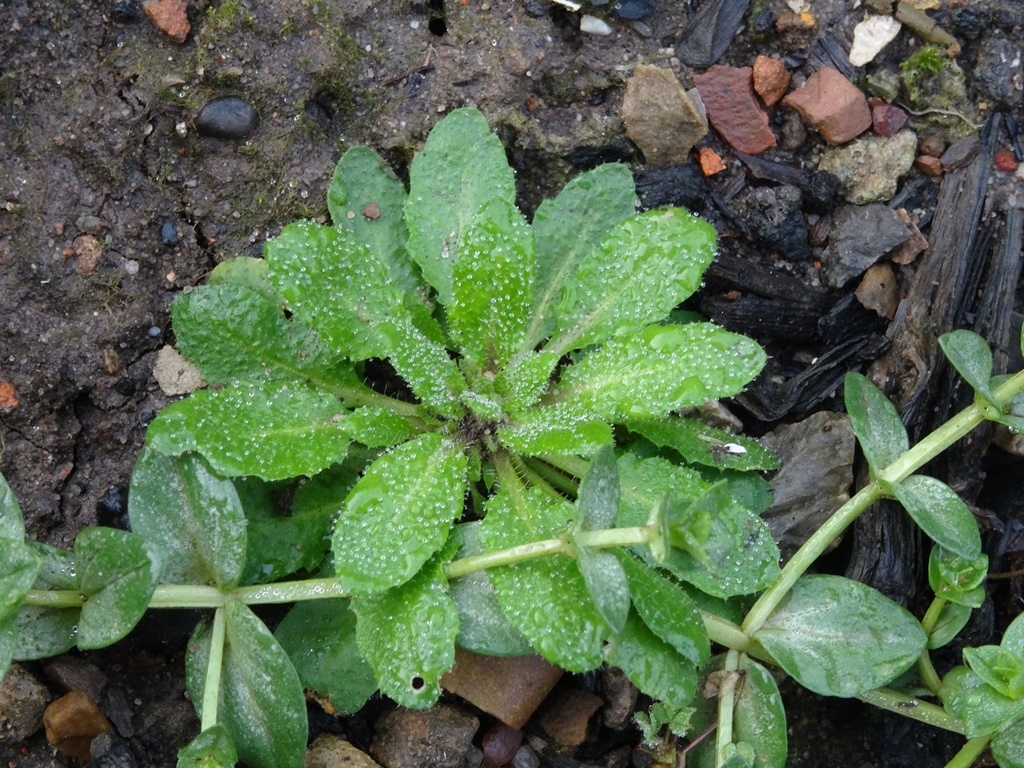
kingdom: Plantae
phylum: Tracheophyta
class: Magnoliopsida
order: Brassicales
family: Brassicaceae
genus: Arabidopsis
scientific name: Arabidopsis thaliana
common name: Thale cress
